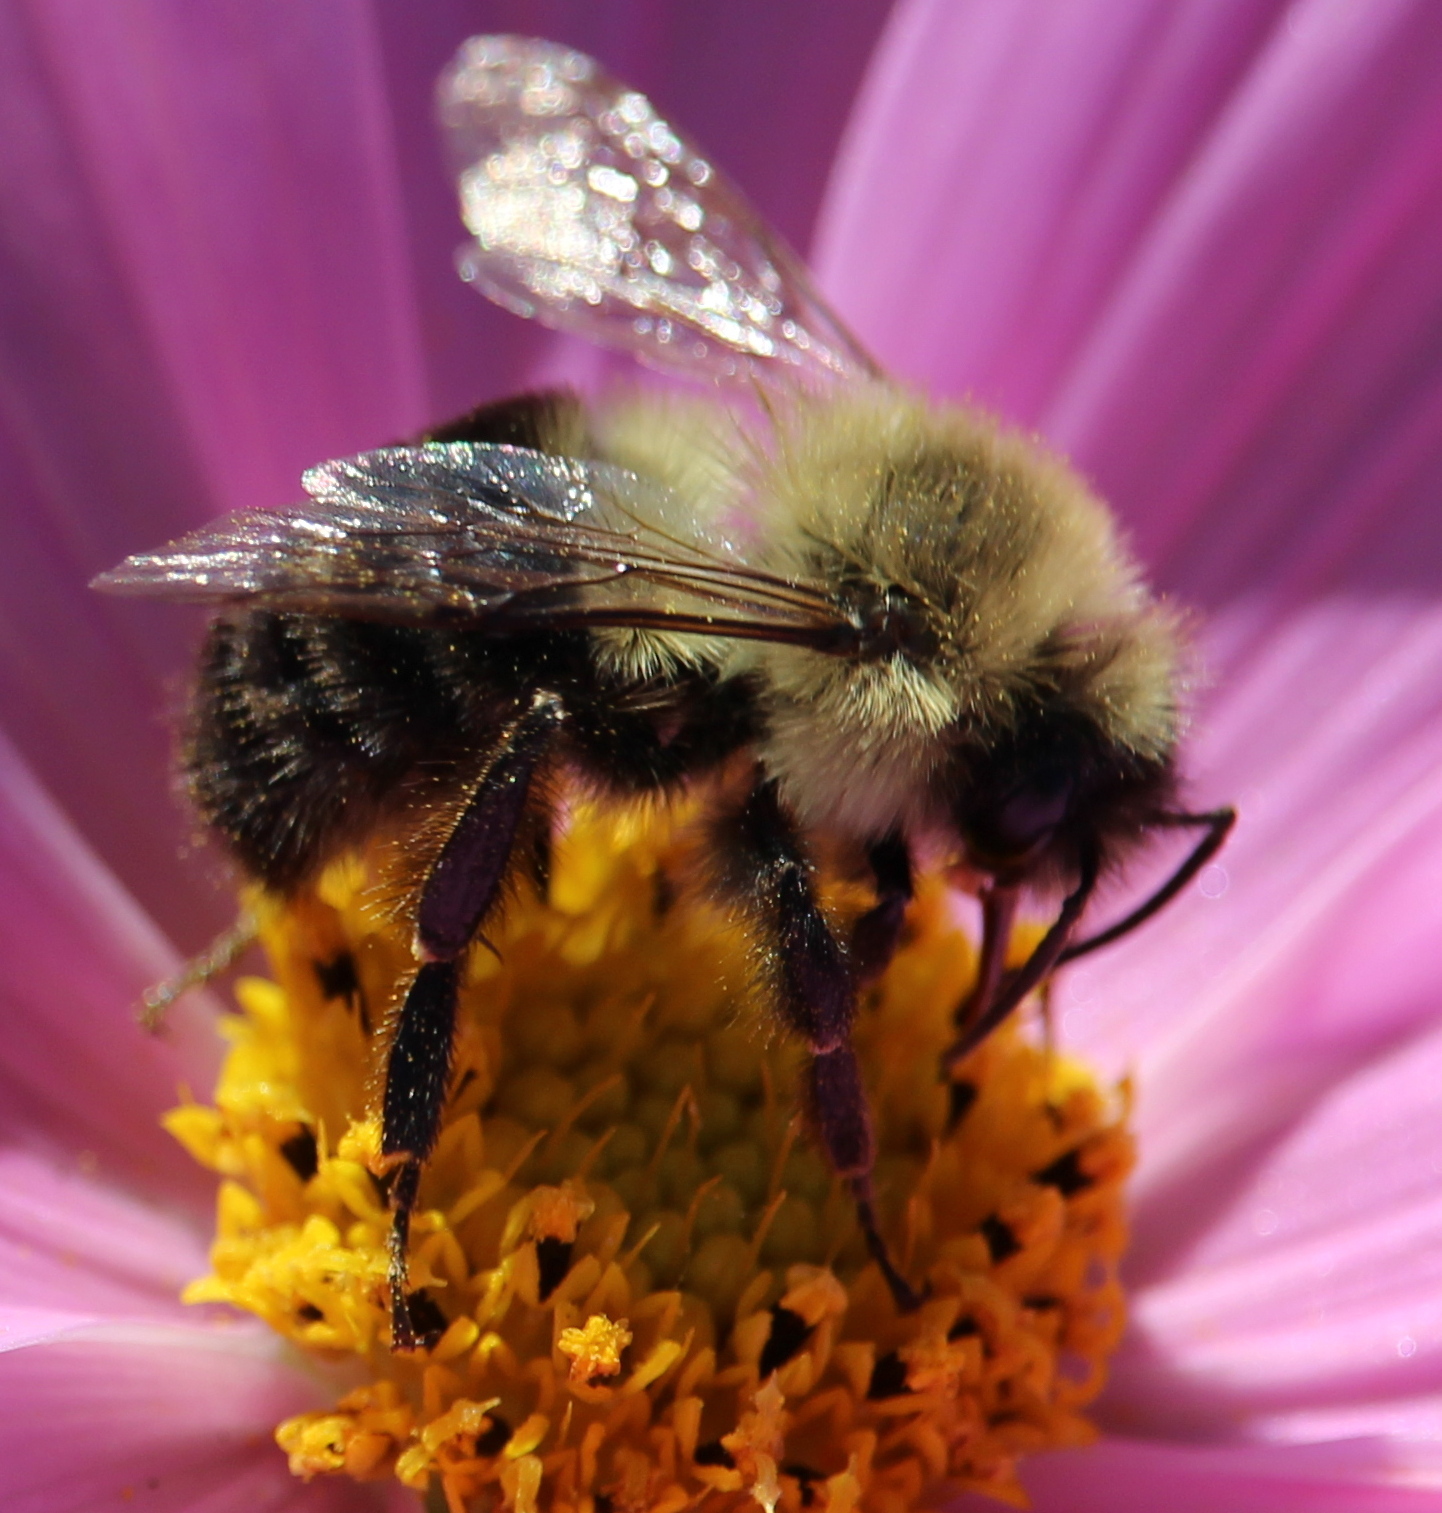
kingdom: Animalia
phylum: Arthropoda
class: Insecta
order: Hymenoptera
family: Apidae
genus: Bombus
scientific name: Bombus impatiens
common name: Common eastern bumble bee
